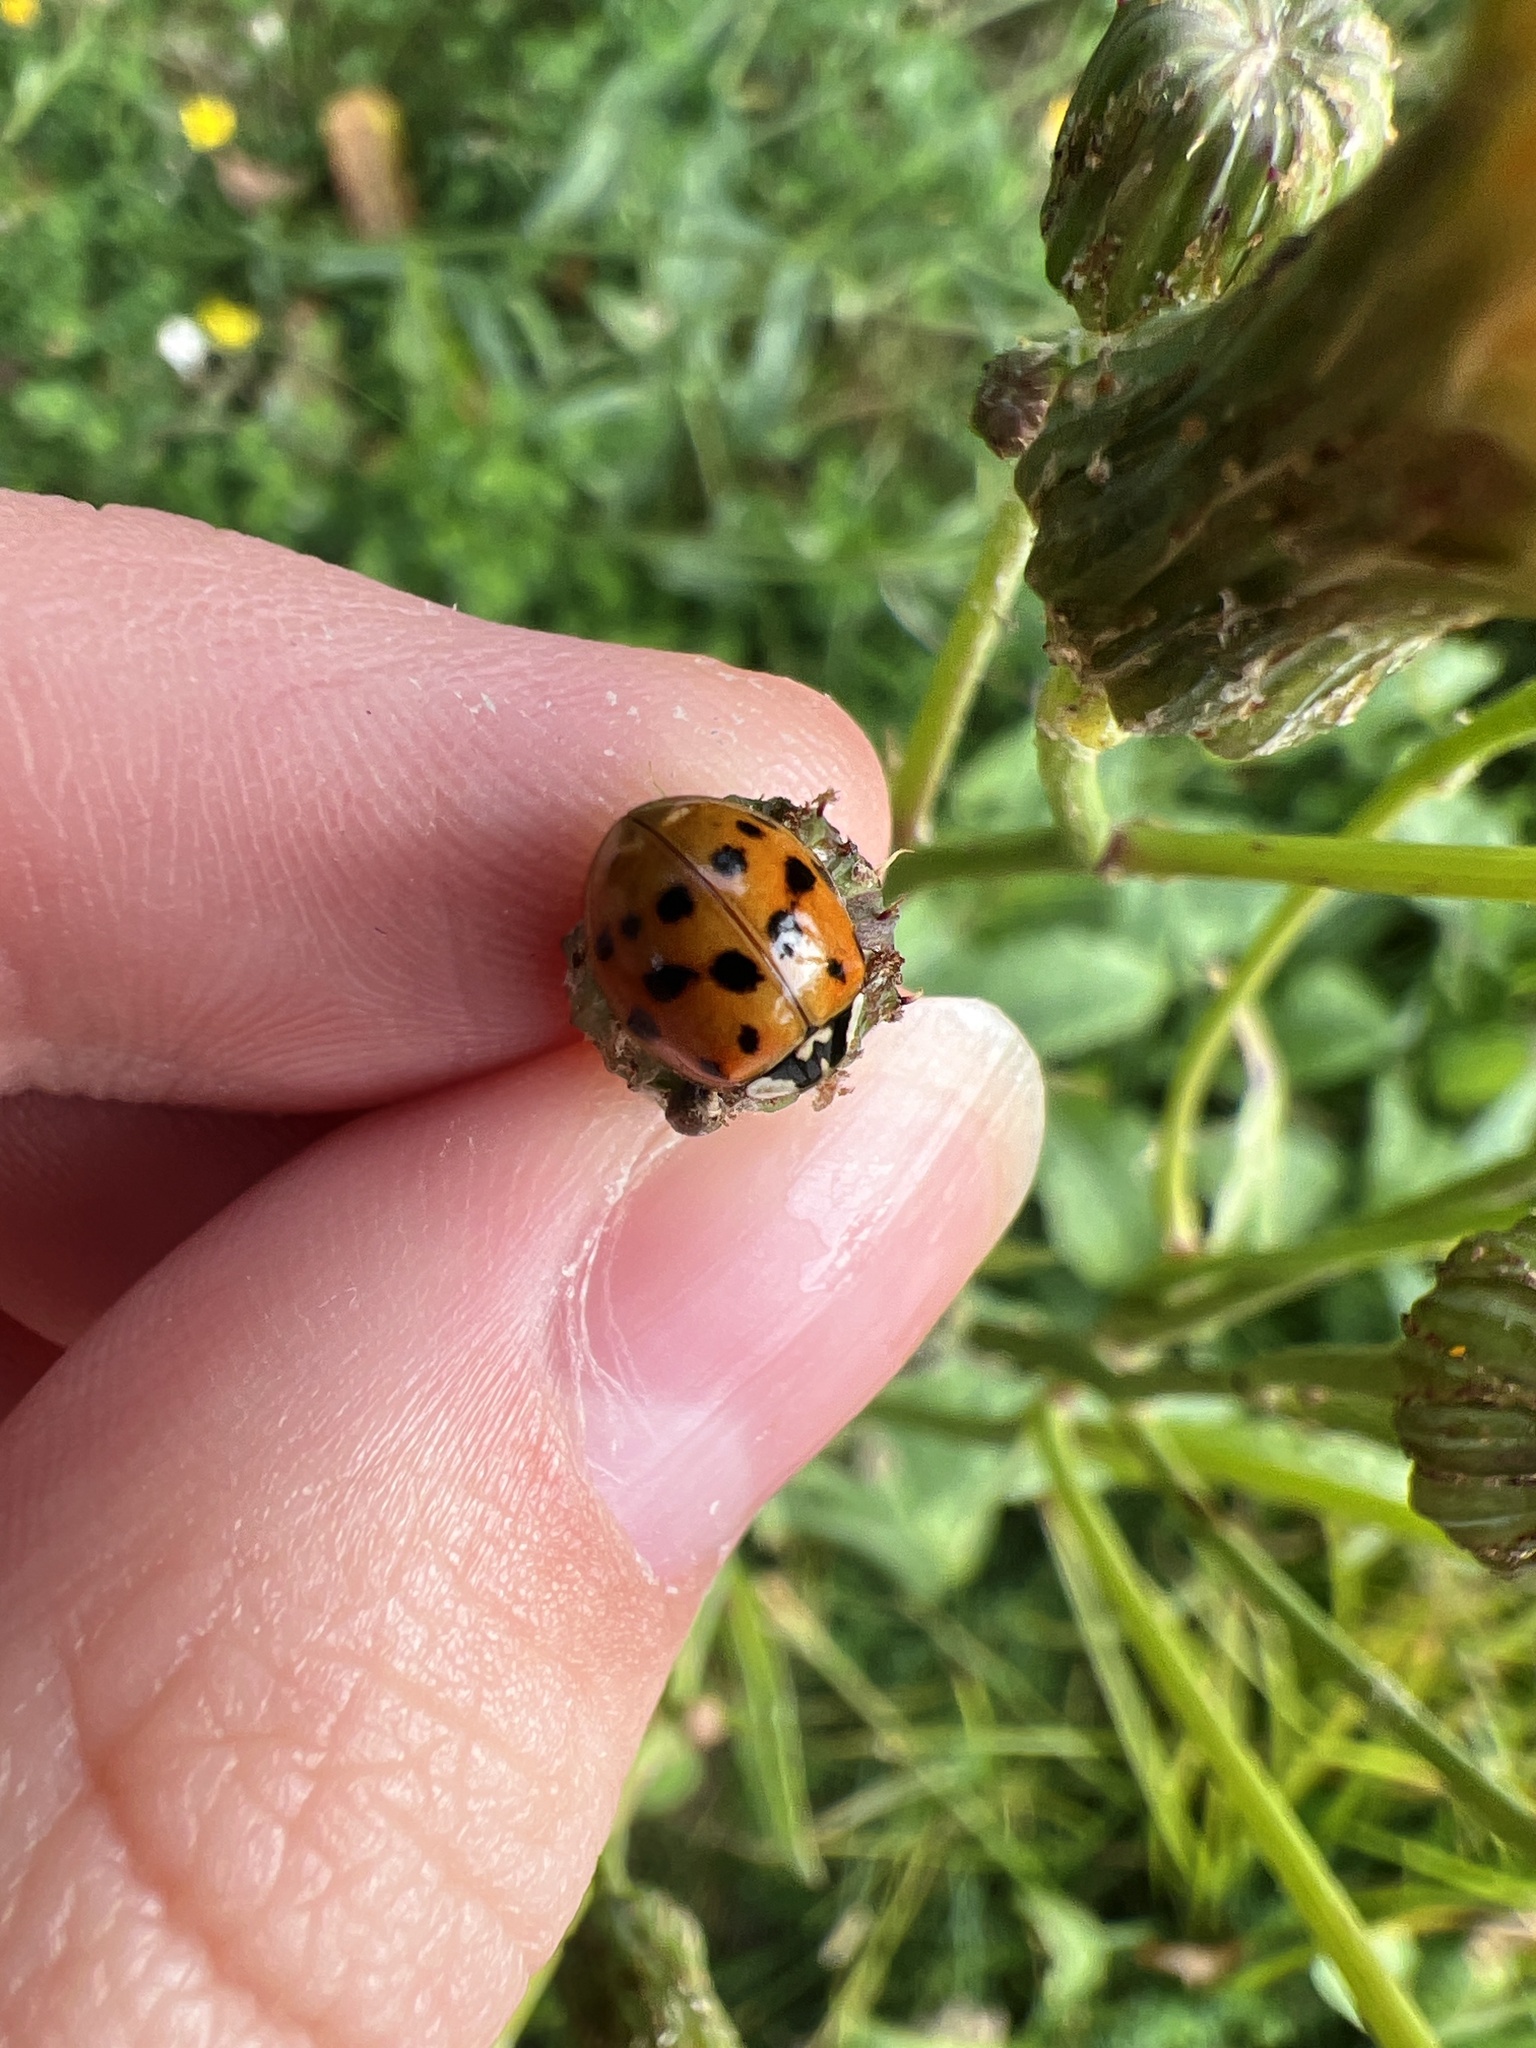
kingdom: Animalia
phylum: Arthropoda
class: Insecta
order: Coleoptera
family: Coccinellidae
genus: Harmonia
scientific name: Harmonia axyridis
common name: Harlequin ladybird
